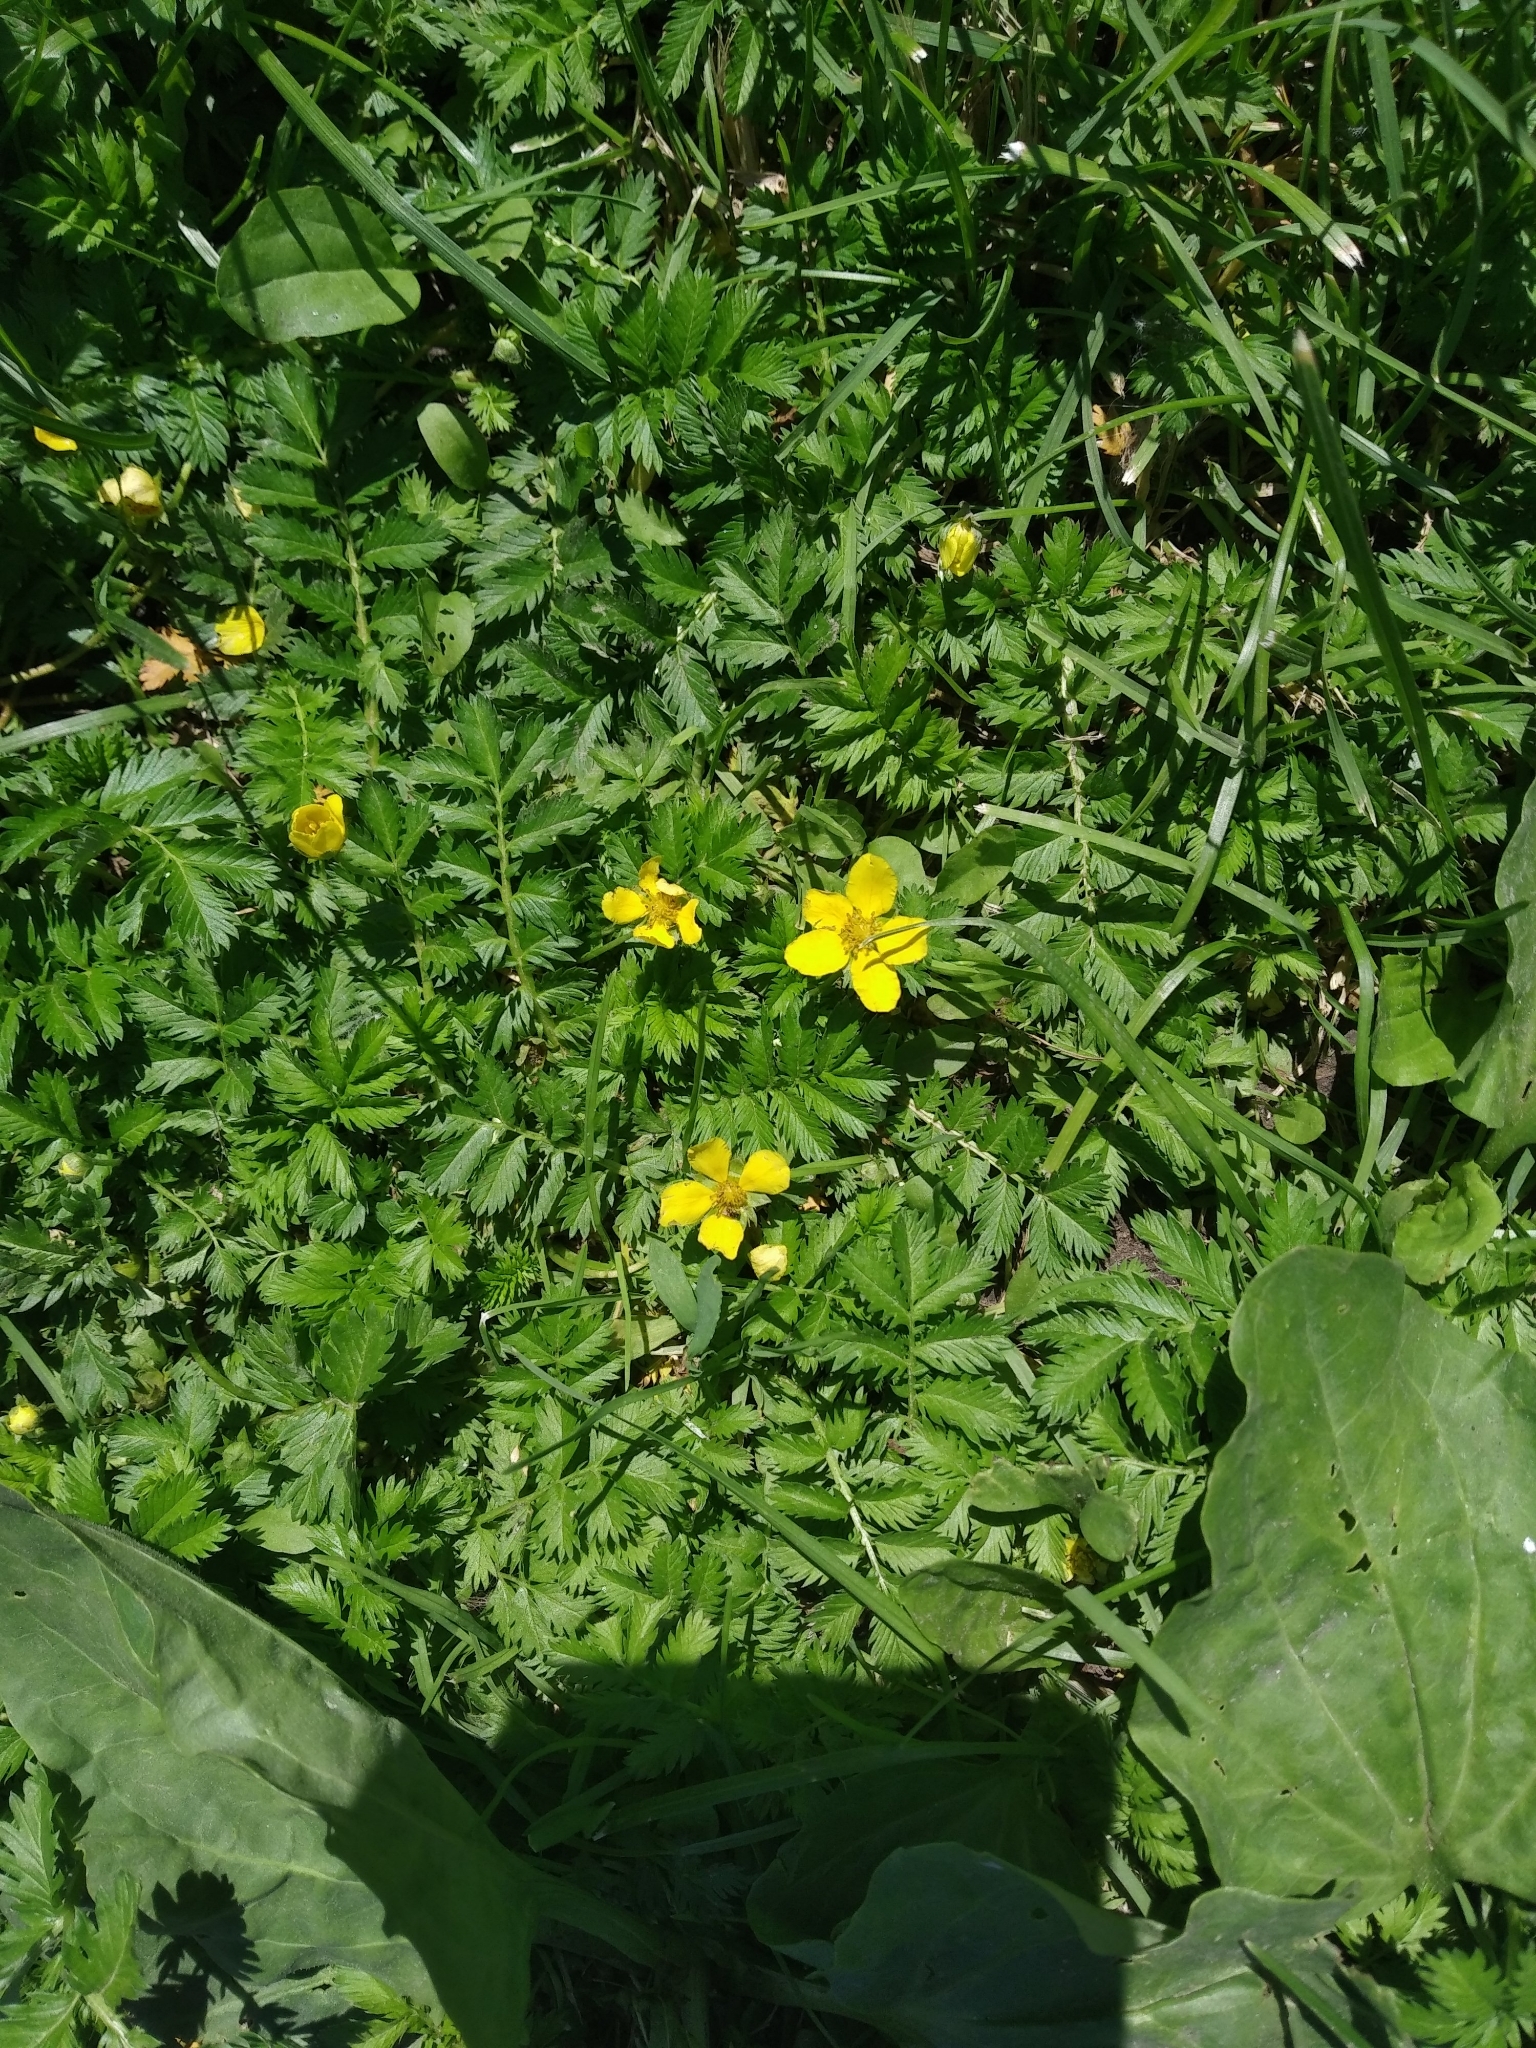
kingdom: Plantae
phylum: Tracheophyta
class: Magnoliopsida
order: Rosales
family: Rosaceae
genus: Argentina
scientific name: Argentina anserina
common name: Common silverweed
